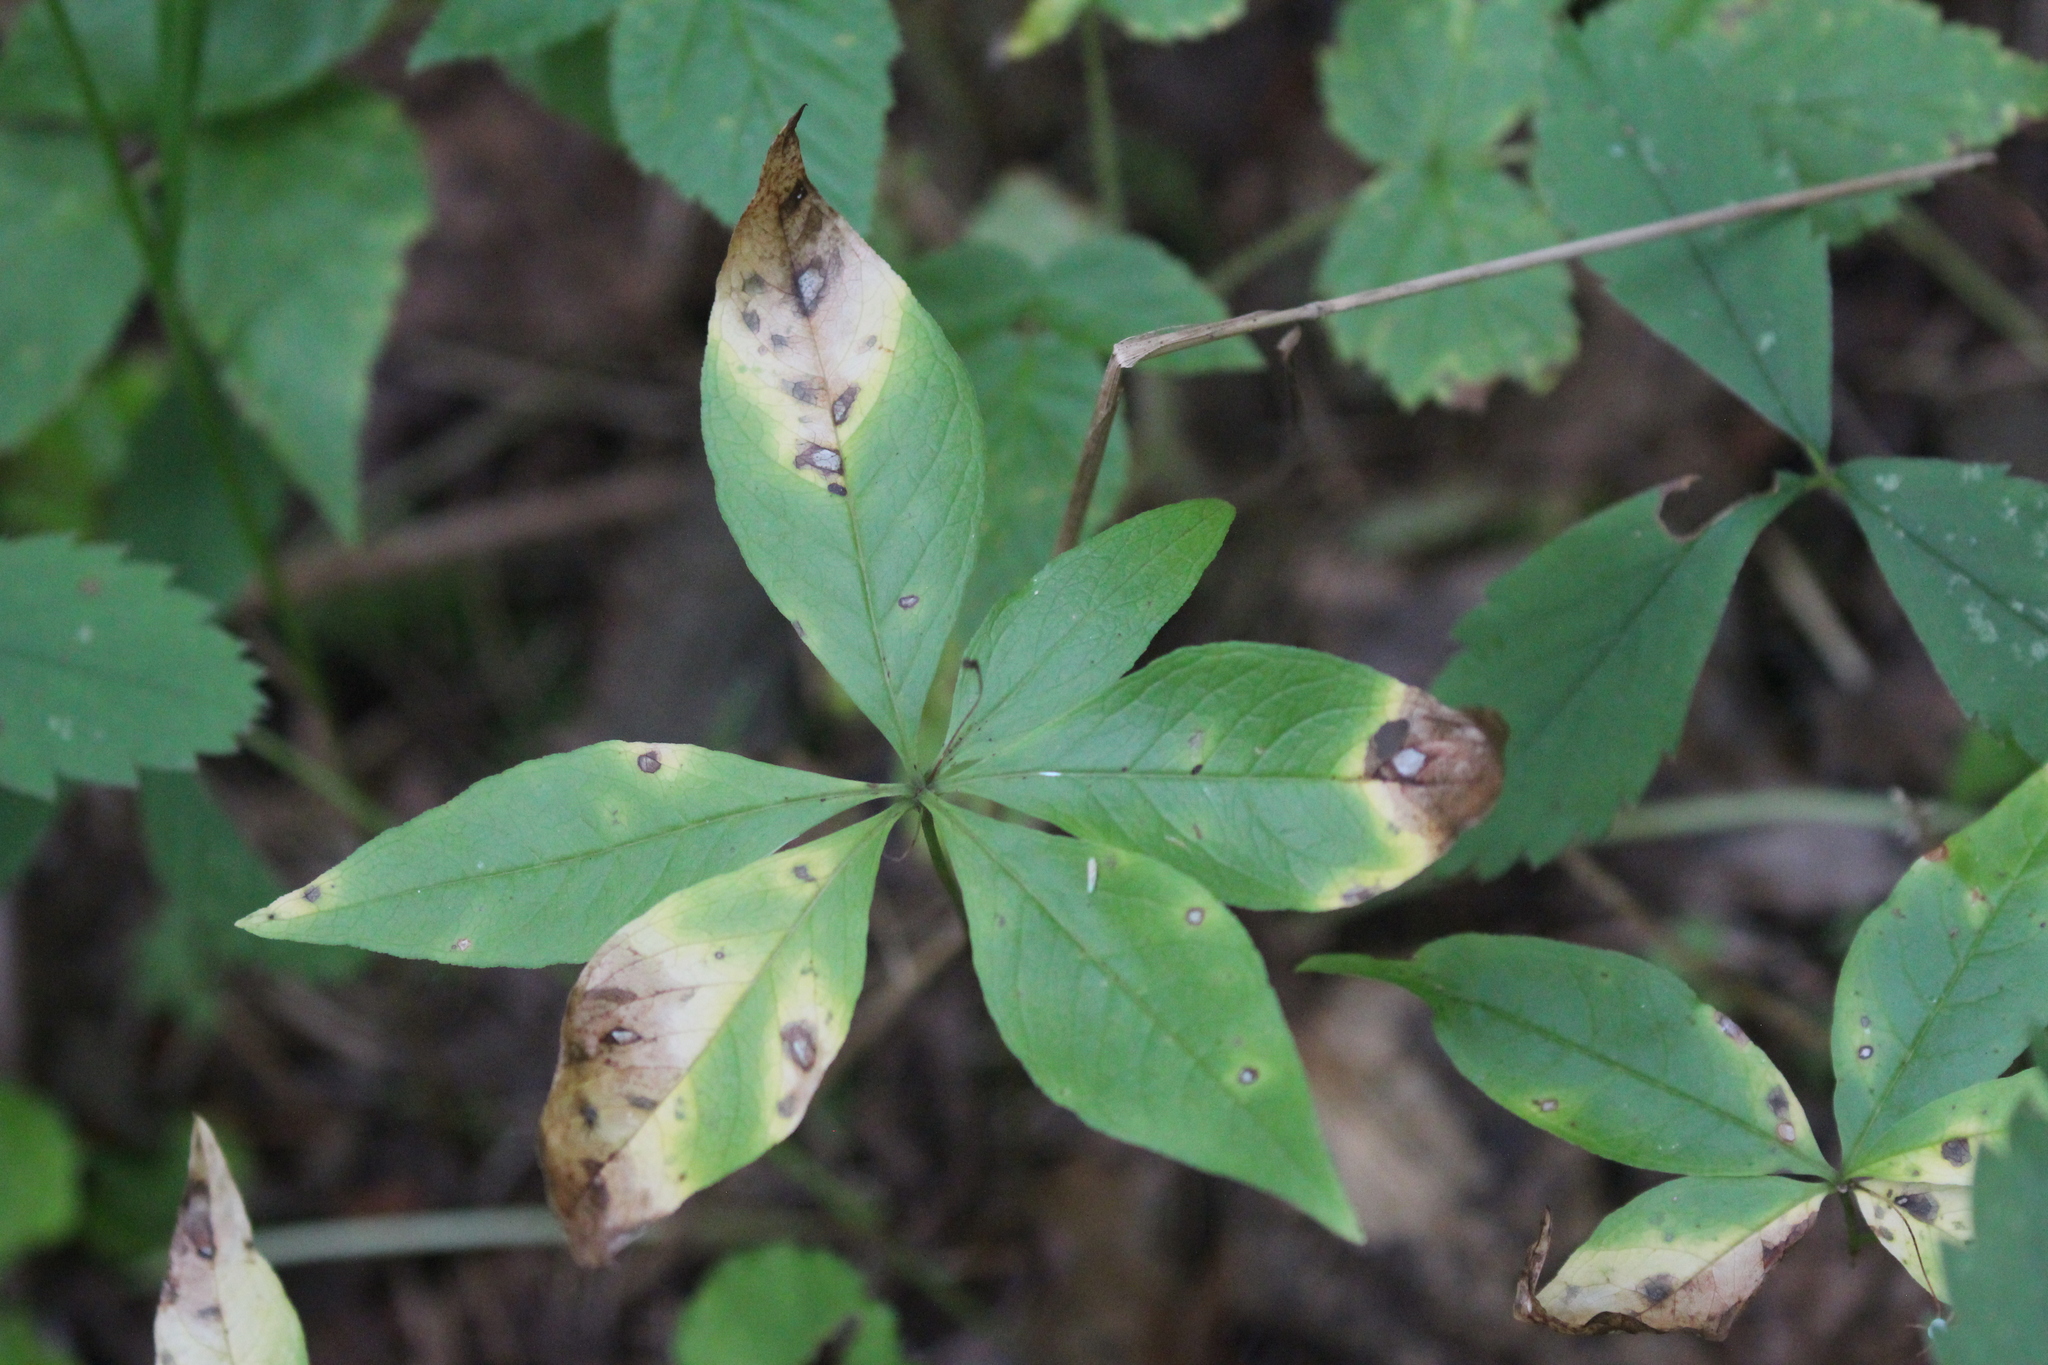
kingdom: Plantae
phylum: Tracheophyta
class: Magnoliopsida
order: Ericales
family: Primulaceae
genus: Lysimachia
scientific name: Lysimachia borealis
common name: American starflower
